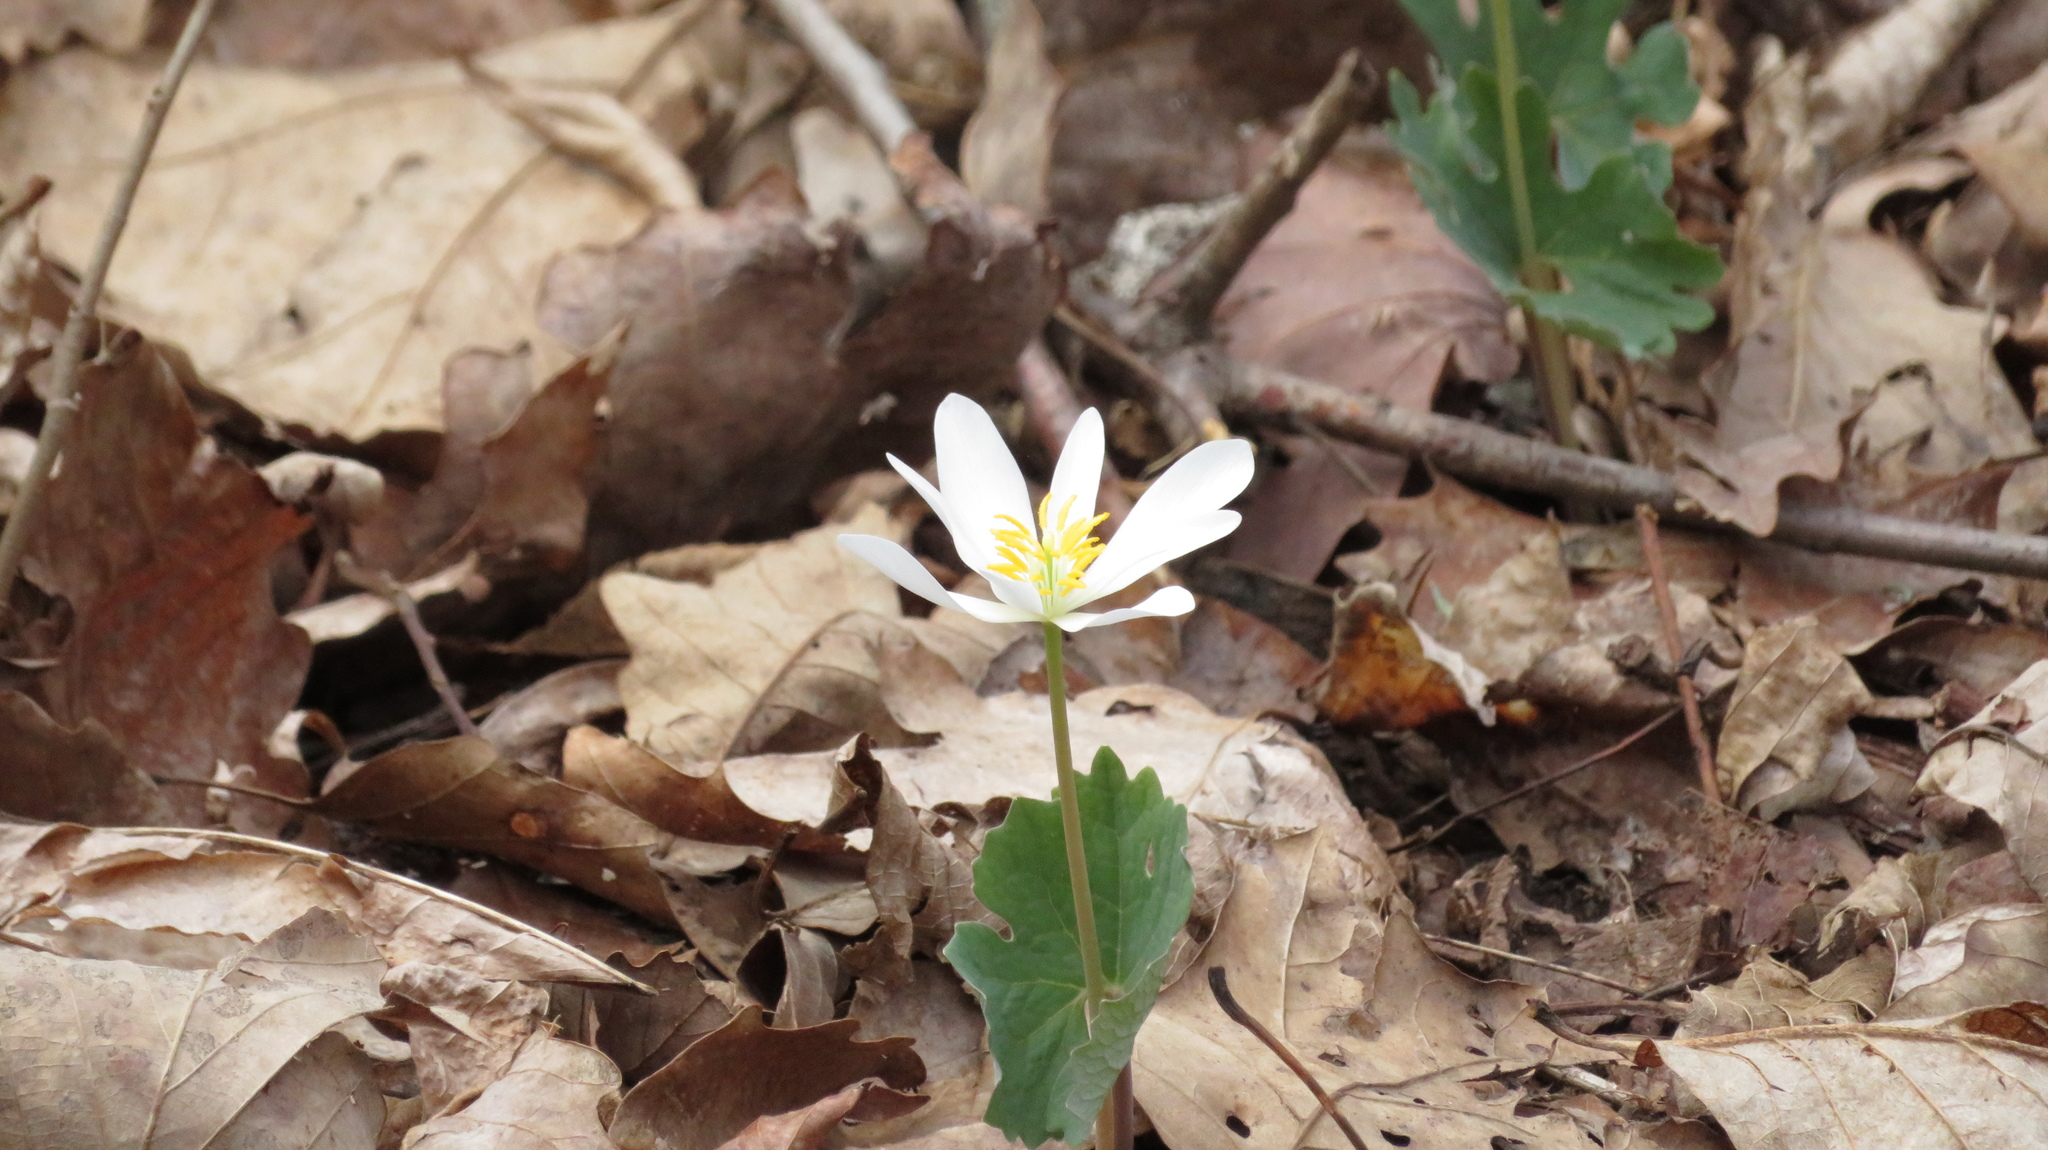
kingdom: Plantae
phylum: Tracheophyta
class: Magnoliopsida
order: Ranunculales
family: Papaveraceae
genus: Sanguinaria
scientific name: Sanguinaria canadensis
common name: Bloodroot
